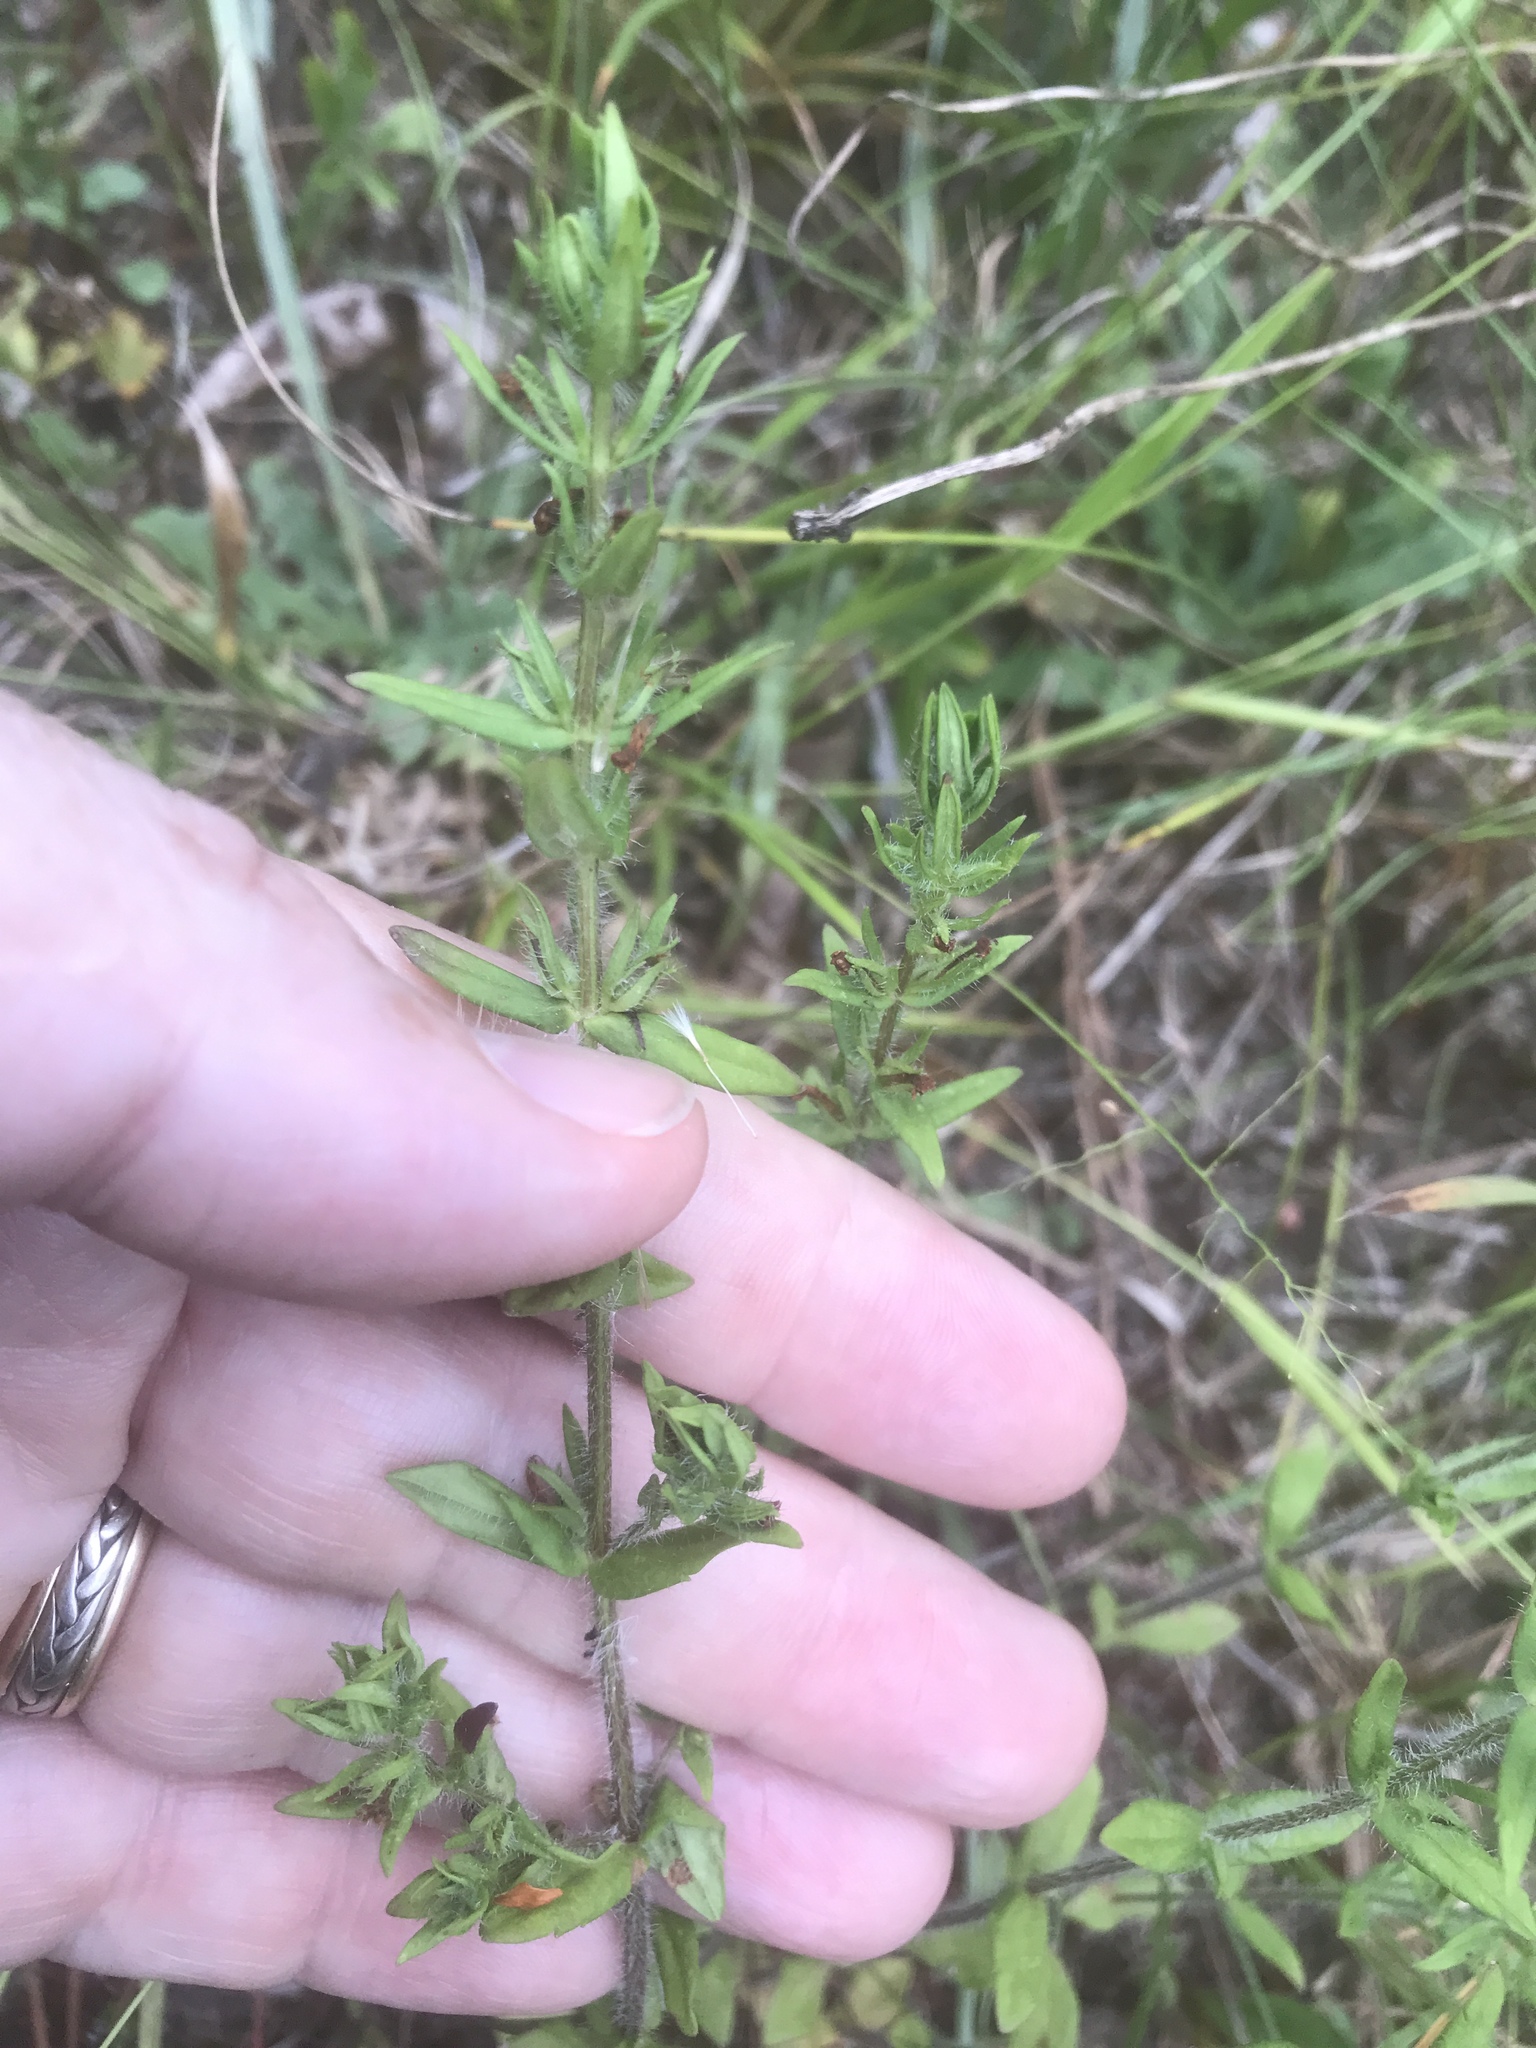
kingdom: Plantae
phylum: Tracheophyta
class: Magnoliopsida
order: Lamiales
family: Plantaginaceae
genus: Gratiola
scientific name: Gratiola pilosa
